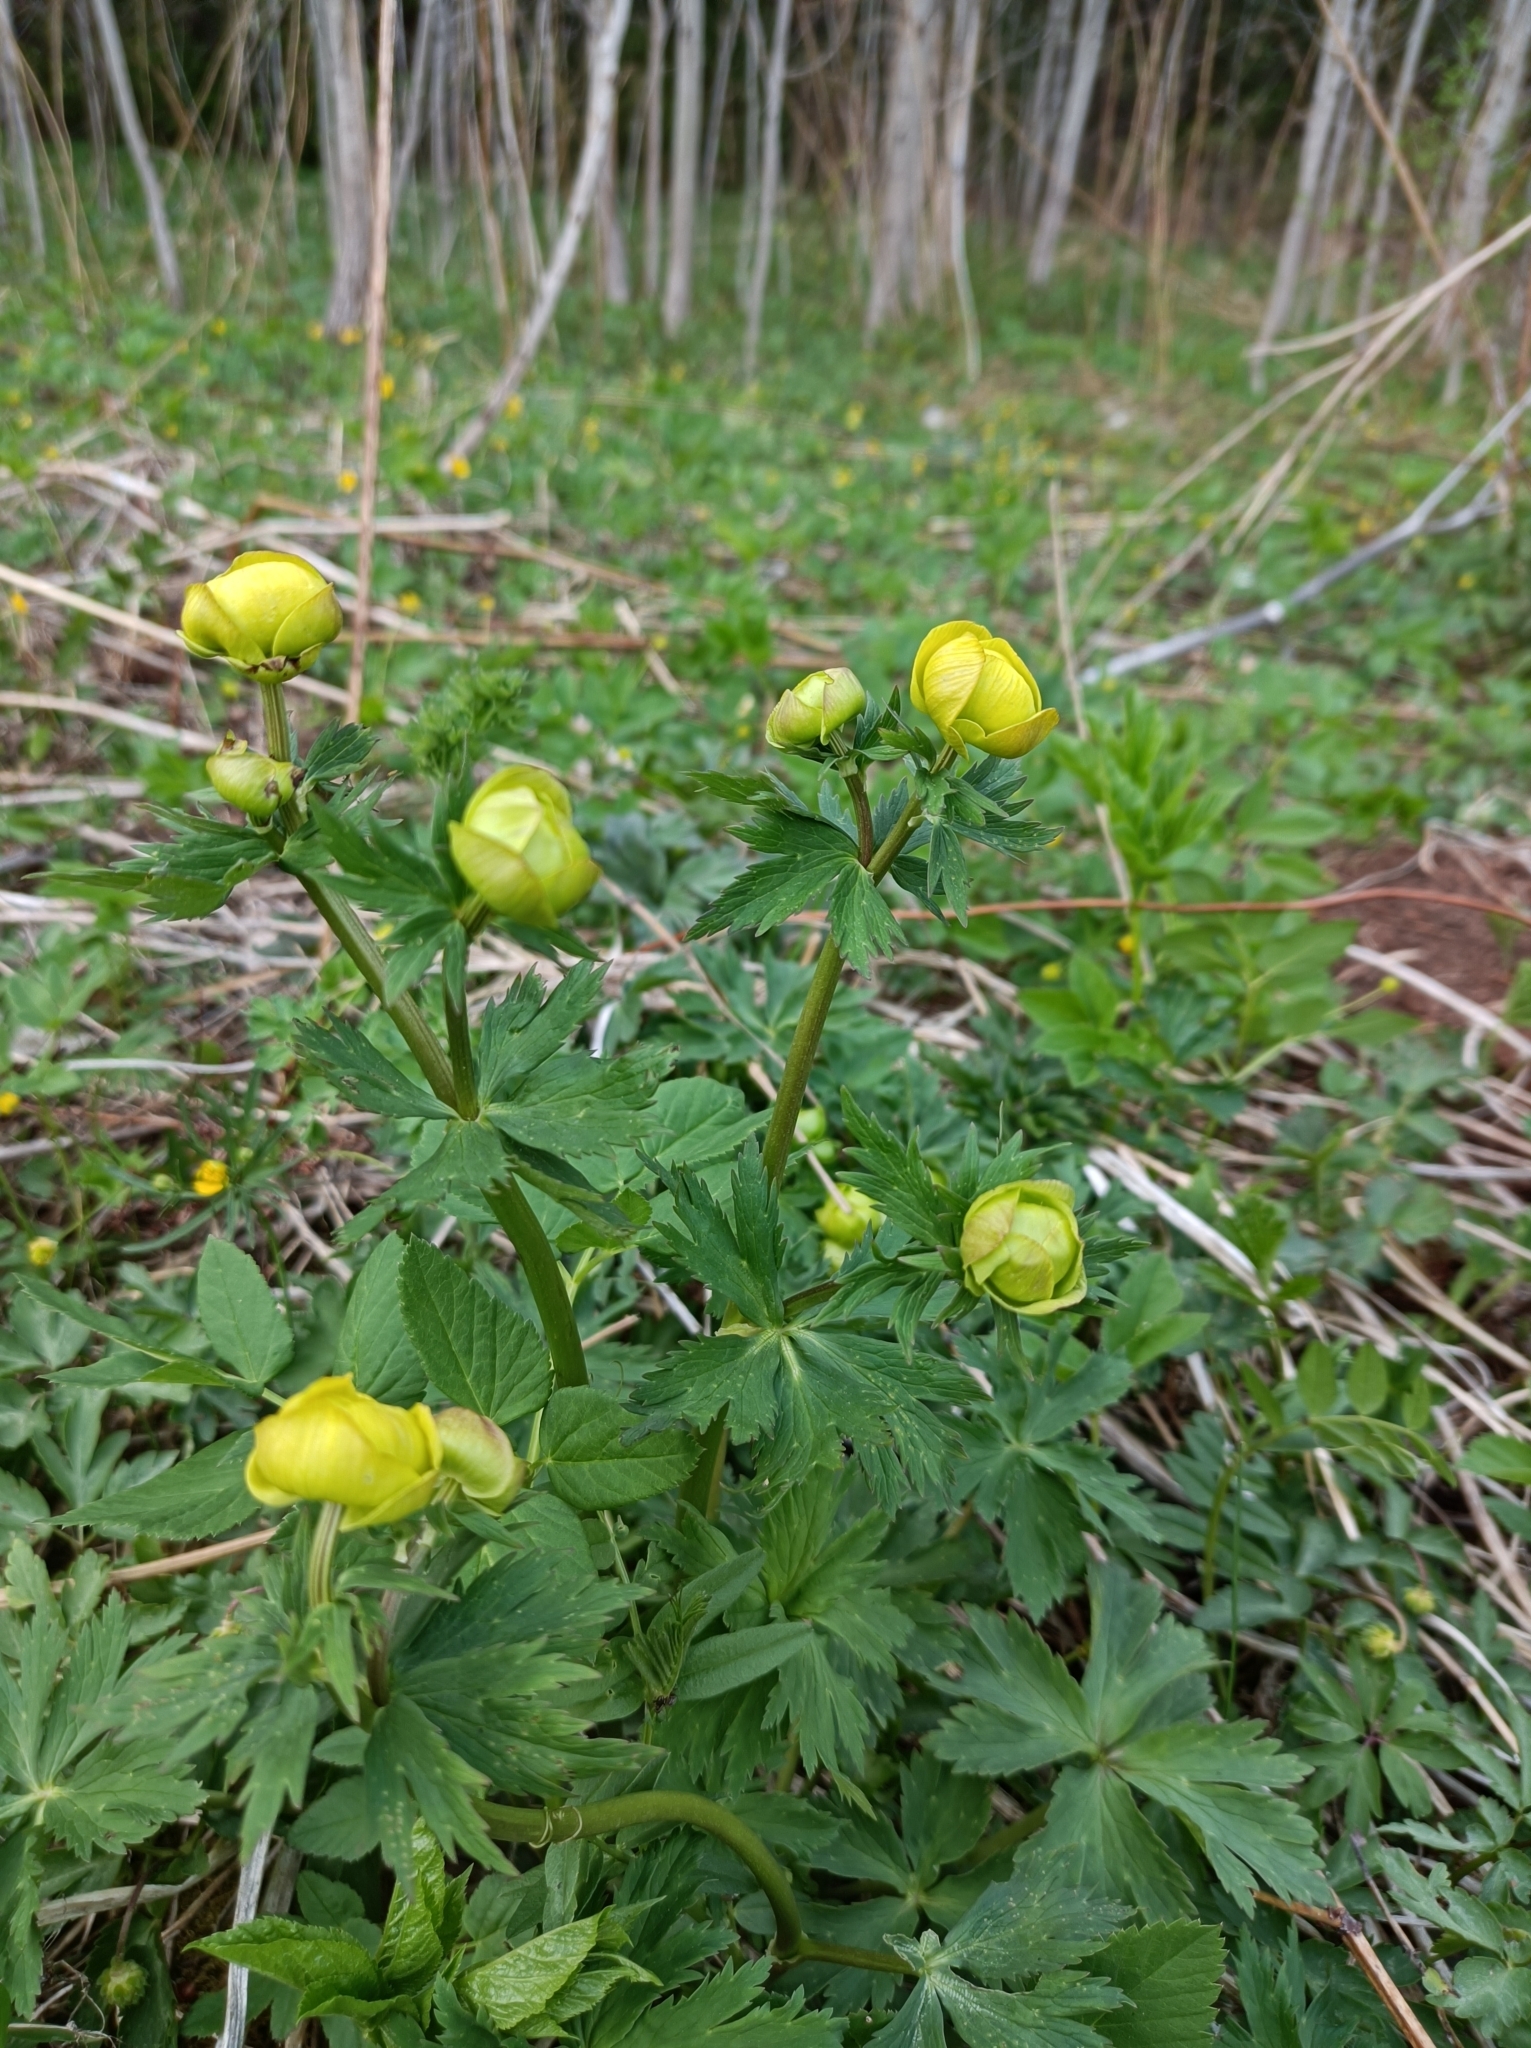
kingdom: Plantae
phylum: Tracheophyta
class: Magnoliopsida
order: Ranunculales
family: Ranunculaceae
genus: Trollius
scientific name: Trollius europaeus
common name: European globeflower
